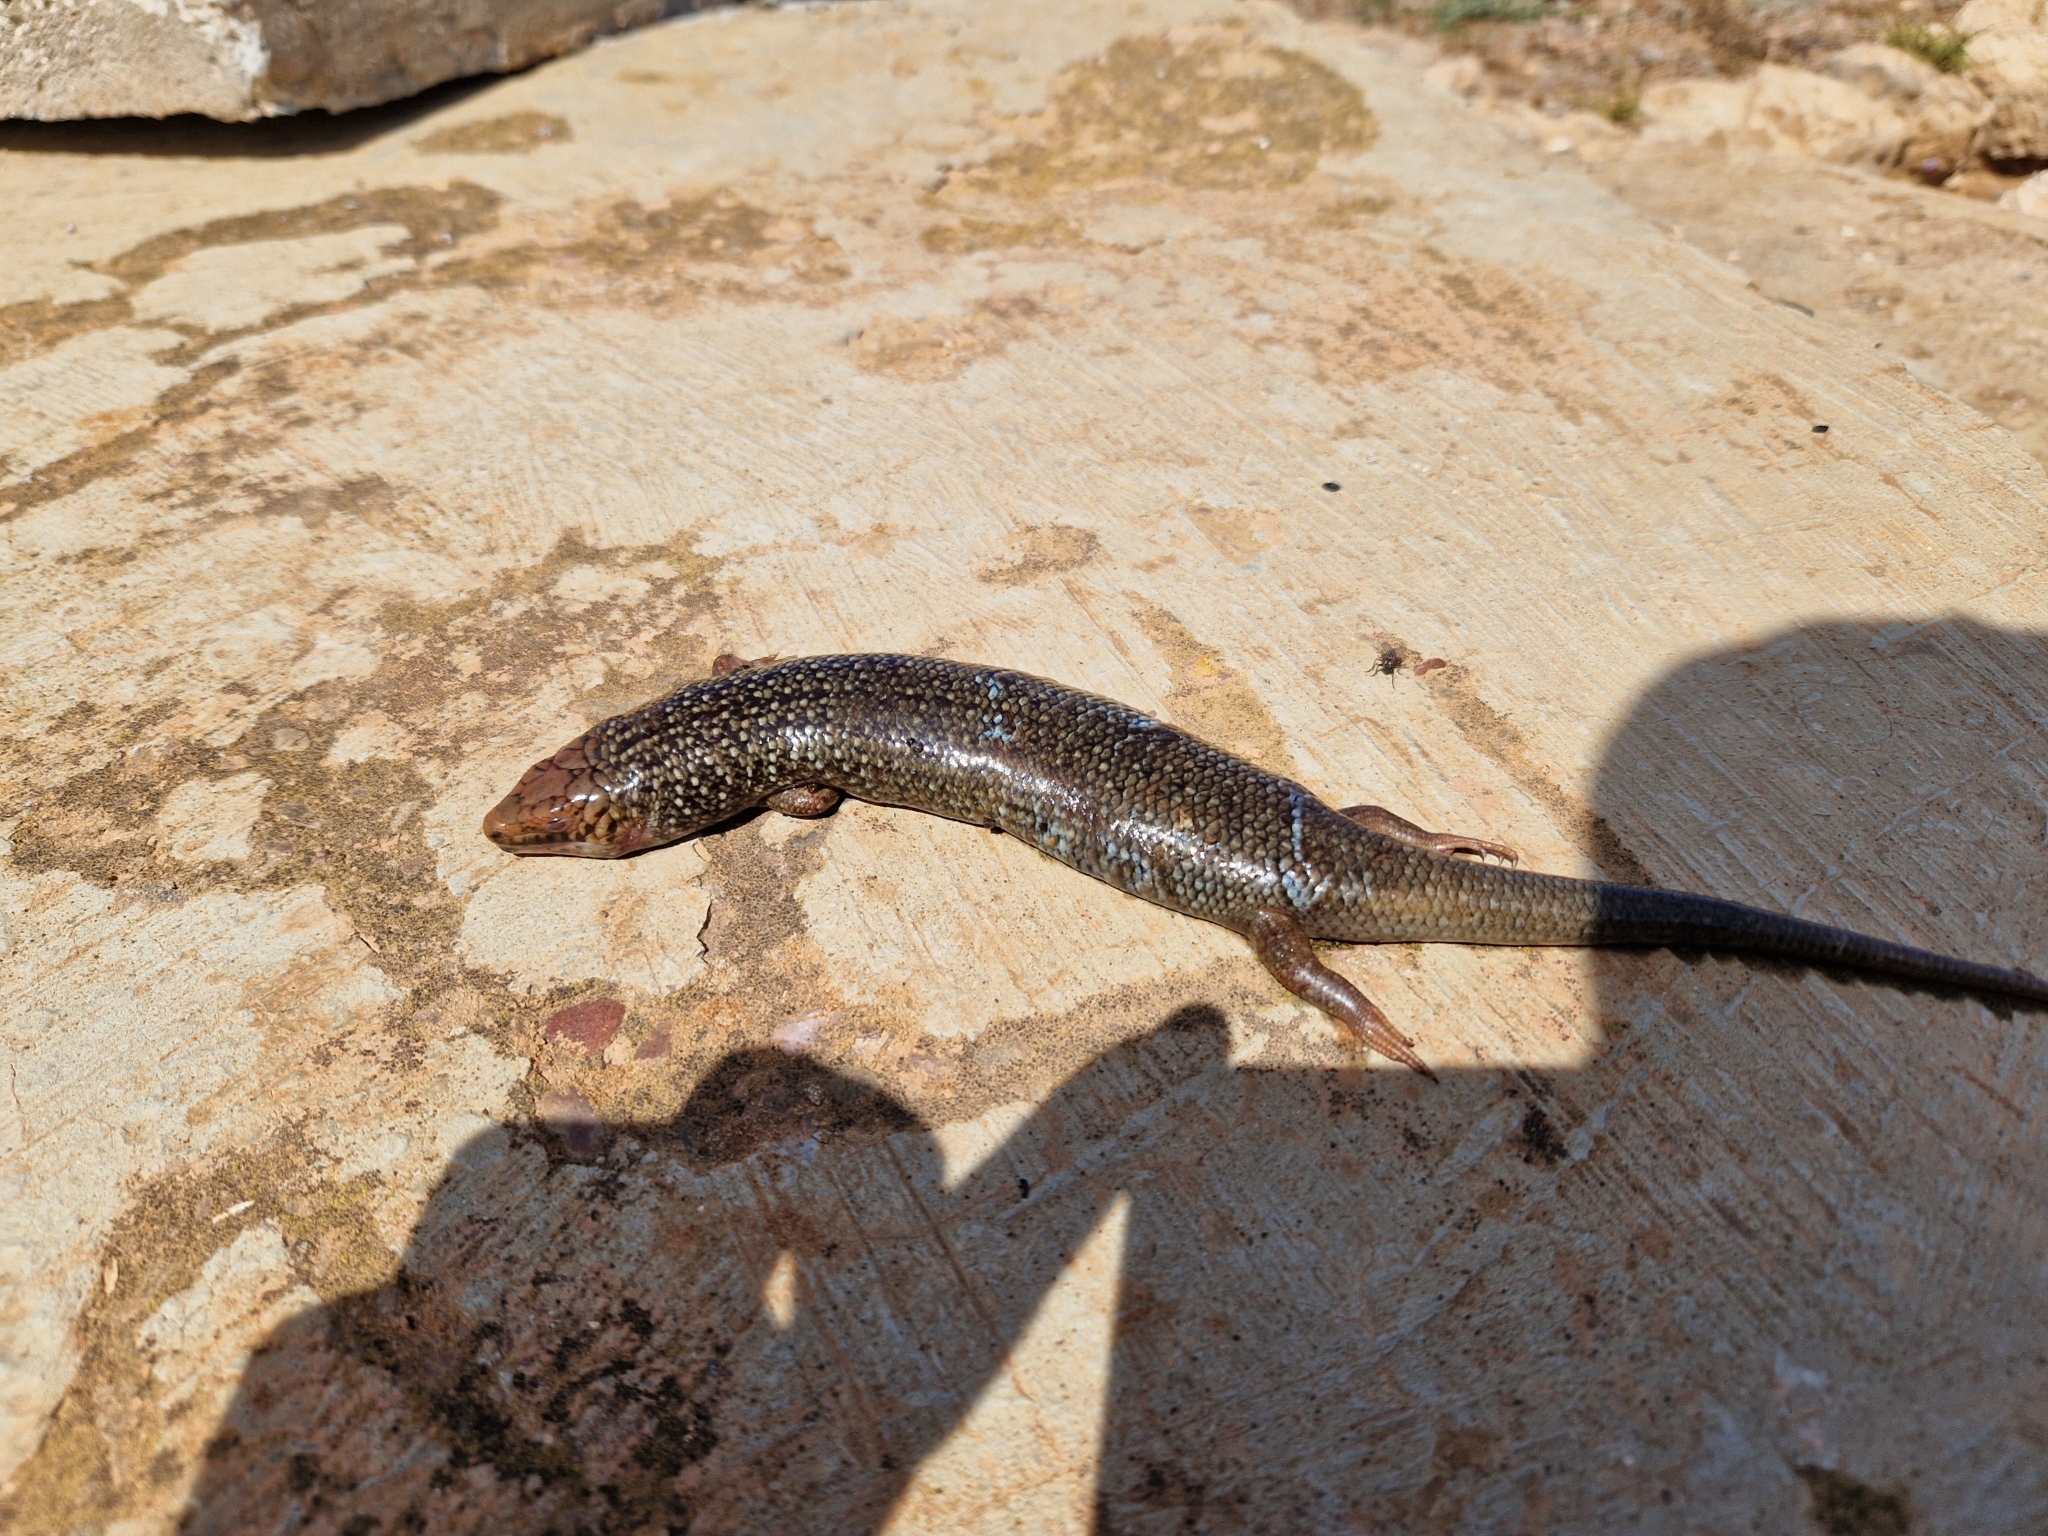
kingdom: Animalia
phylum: Chordata
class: Squamata
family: Scincidae
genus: Chalcides
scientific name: Chalcides polylepis
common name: Many-scaled cylindrical skink
